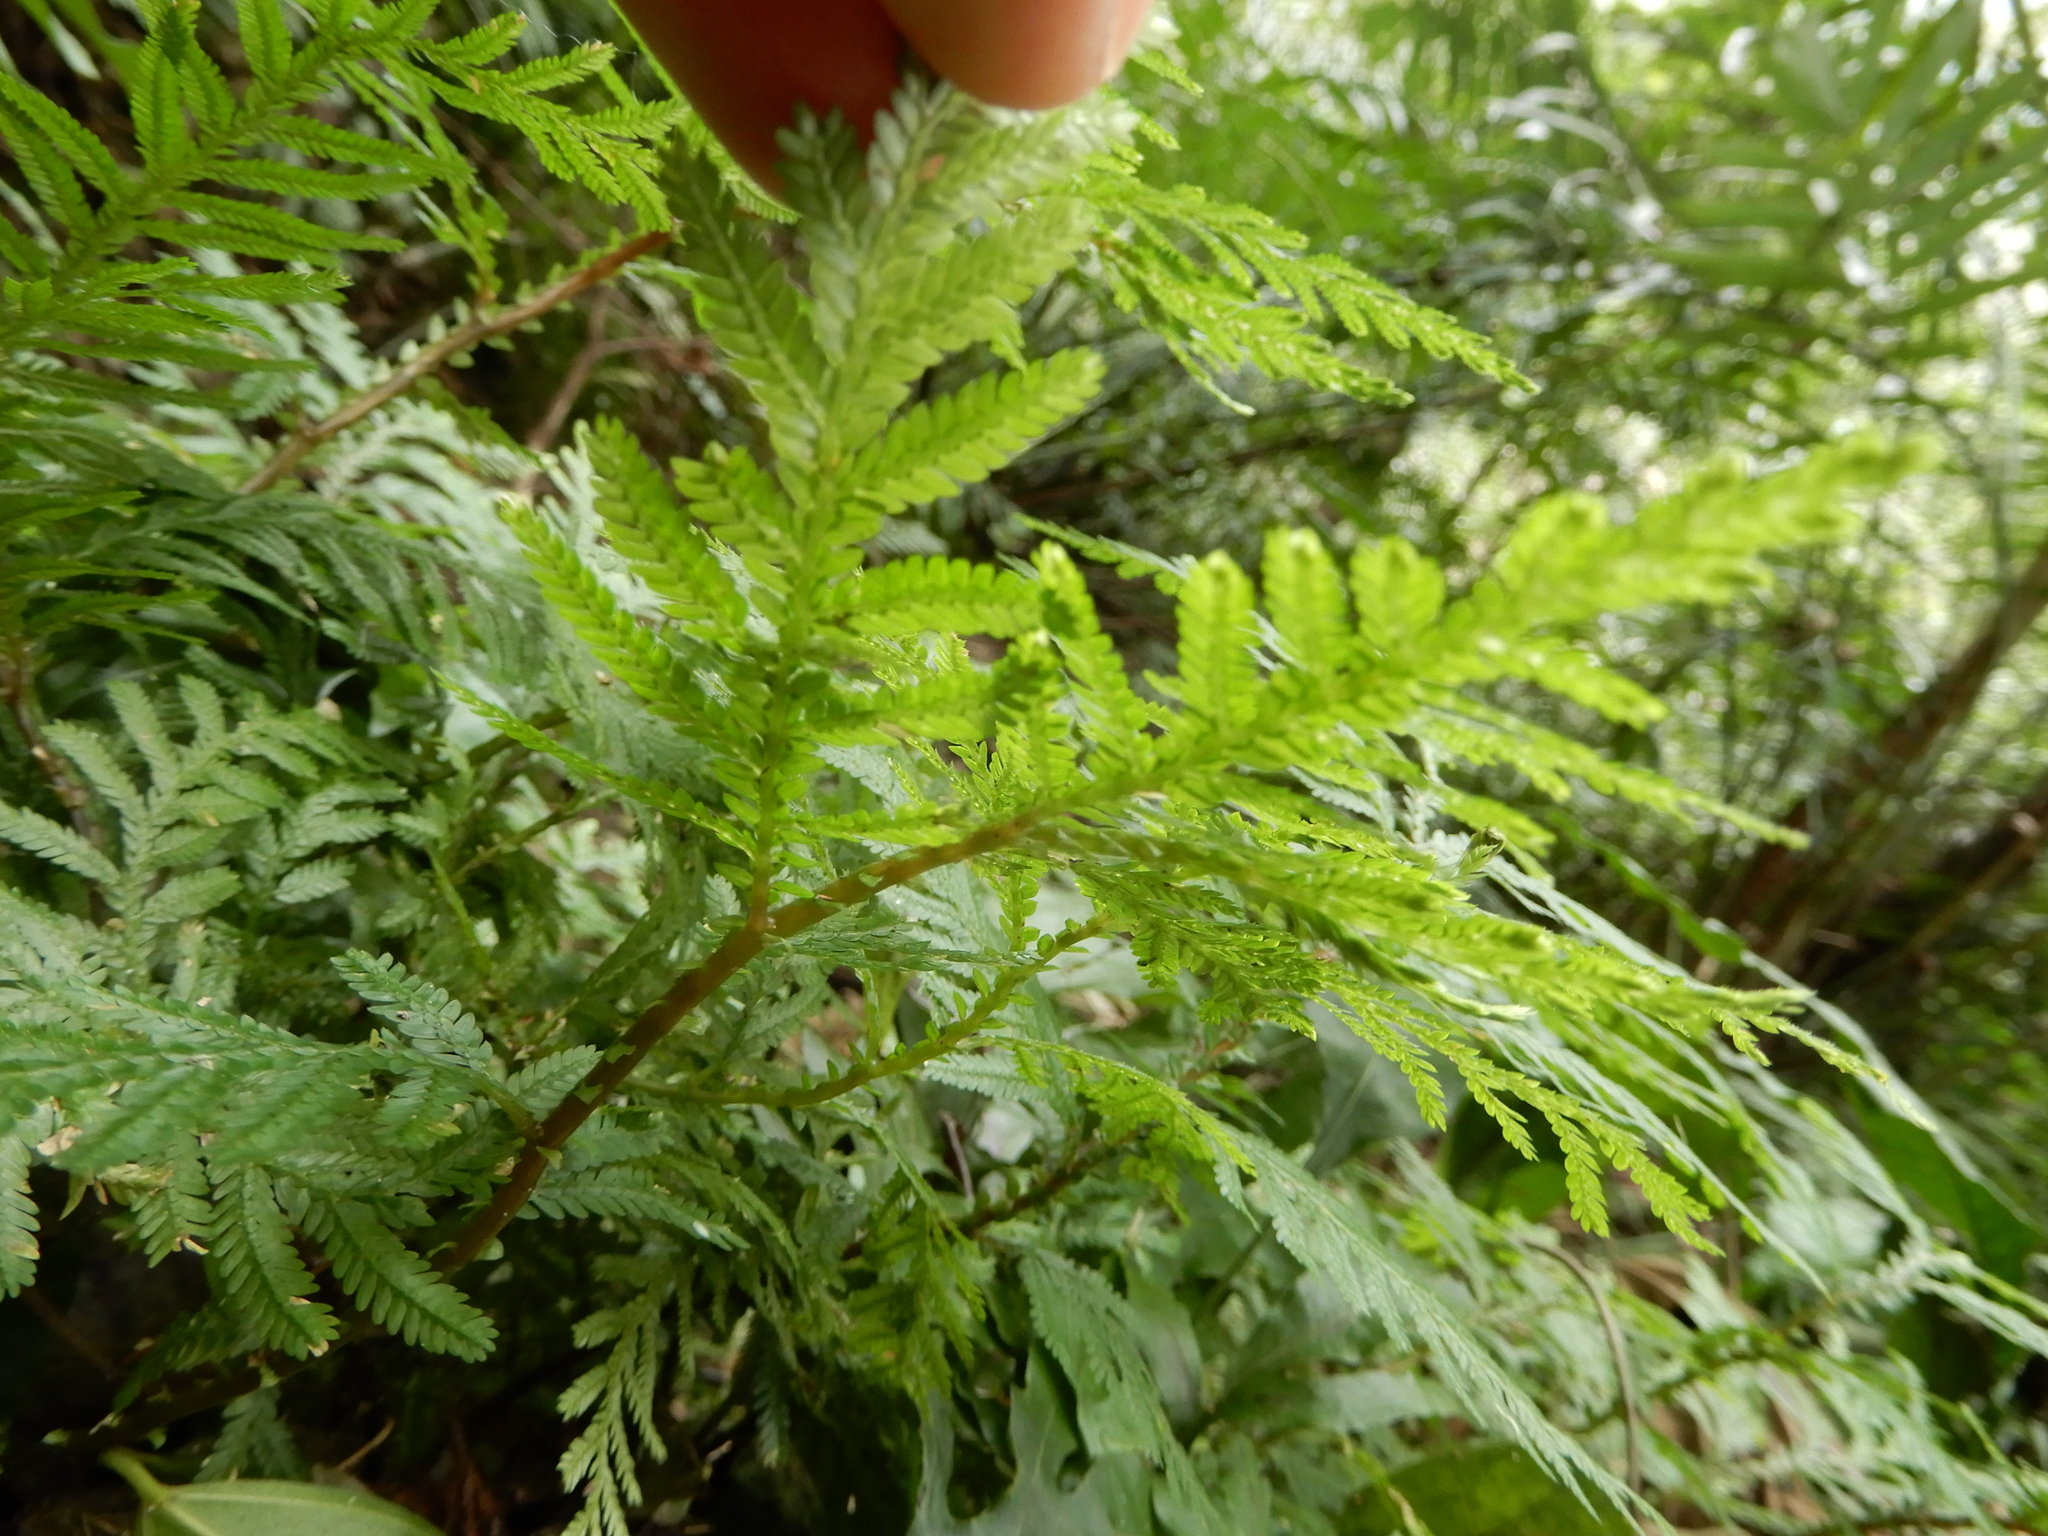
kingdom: Plantae
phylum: Tracheophyta
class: Lycopodiopsida
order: Selaginellales
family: Selaginellaceae
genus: Selaginella
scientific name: Selaginella delicatula
